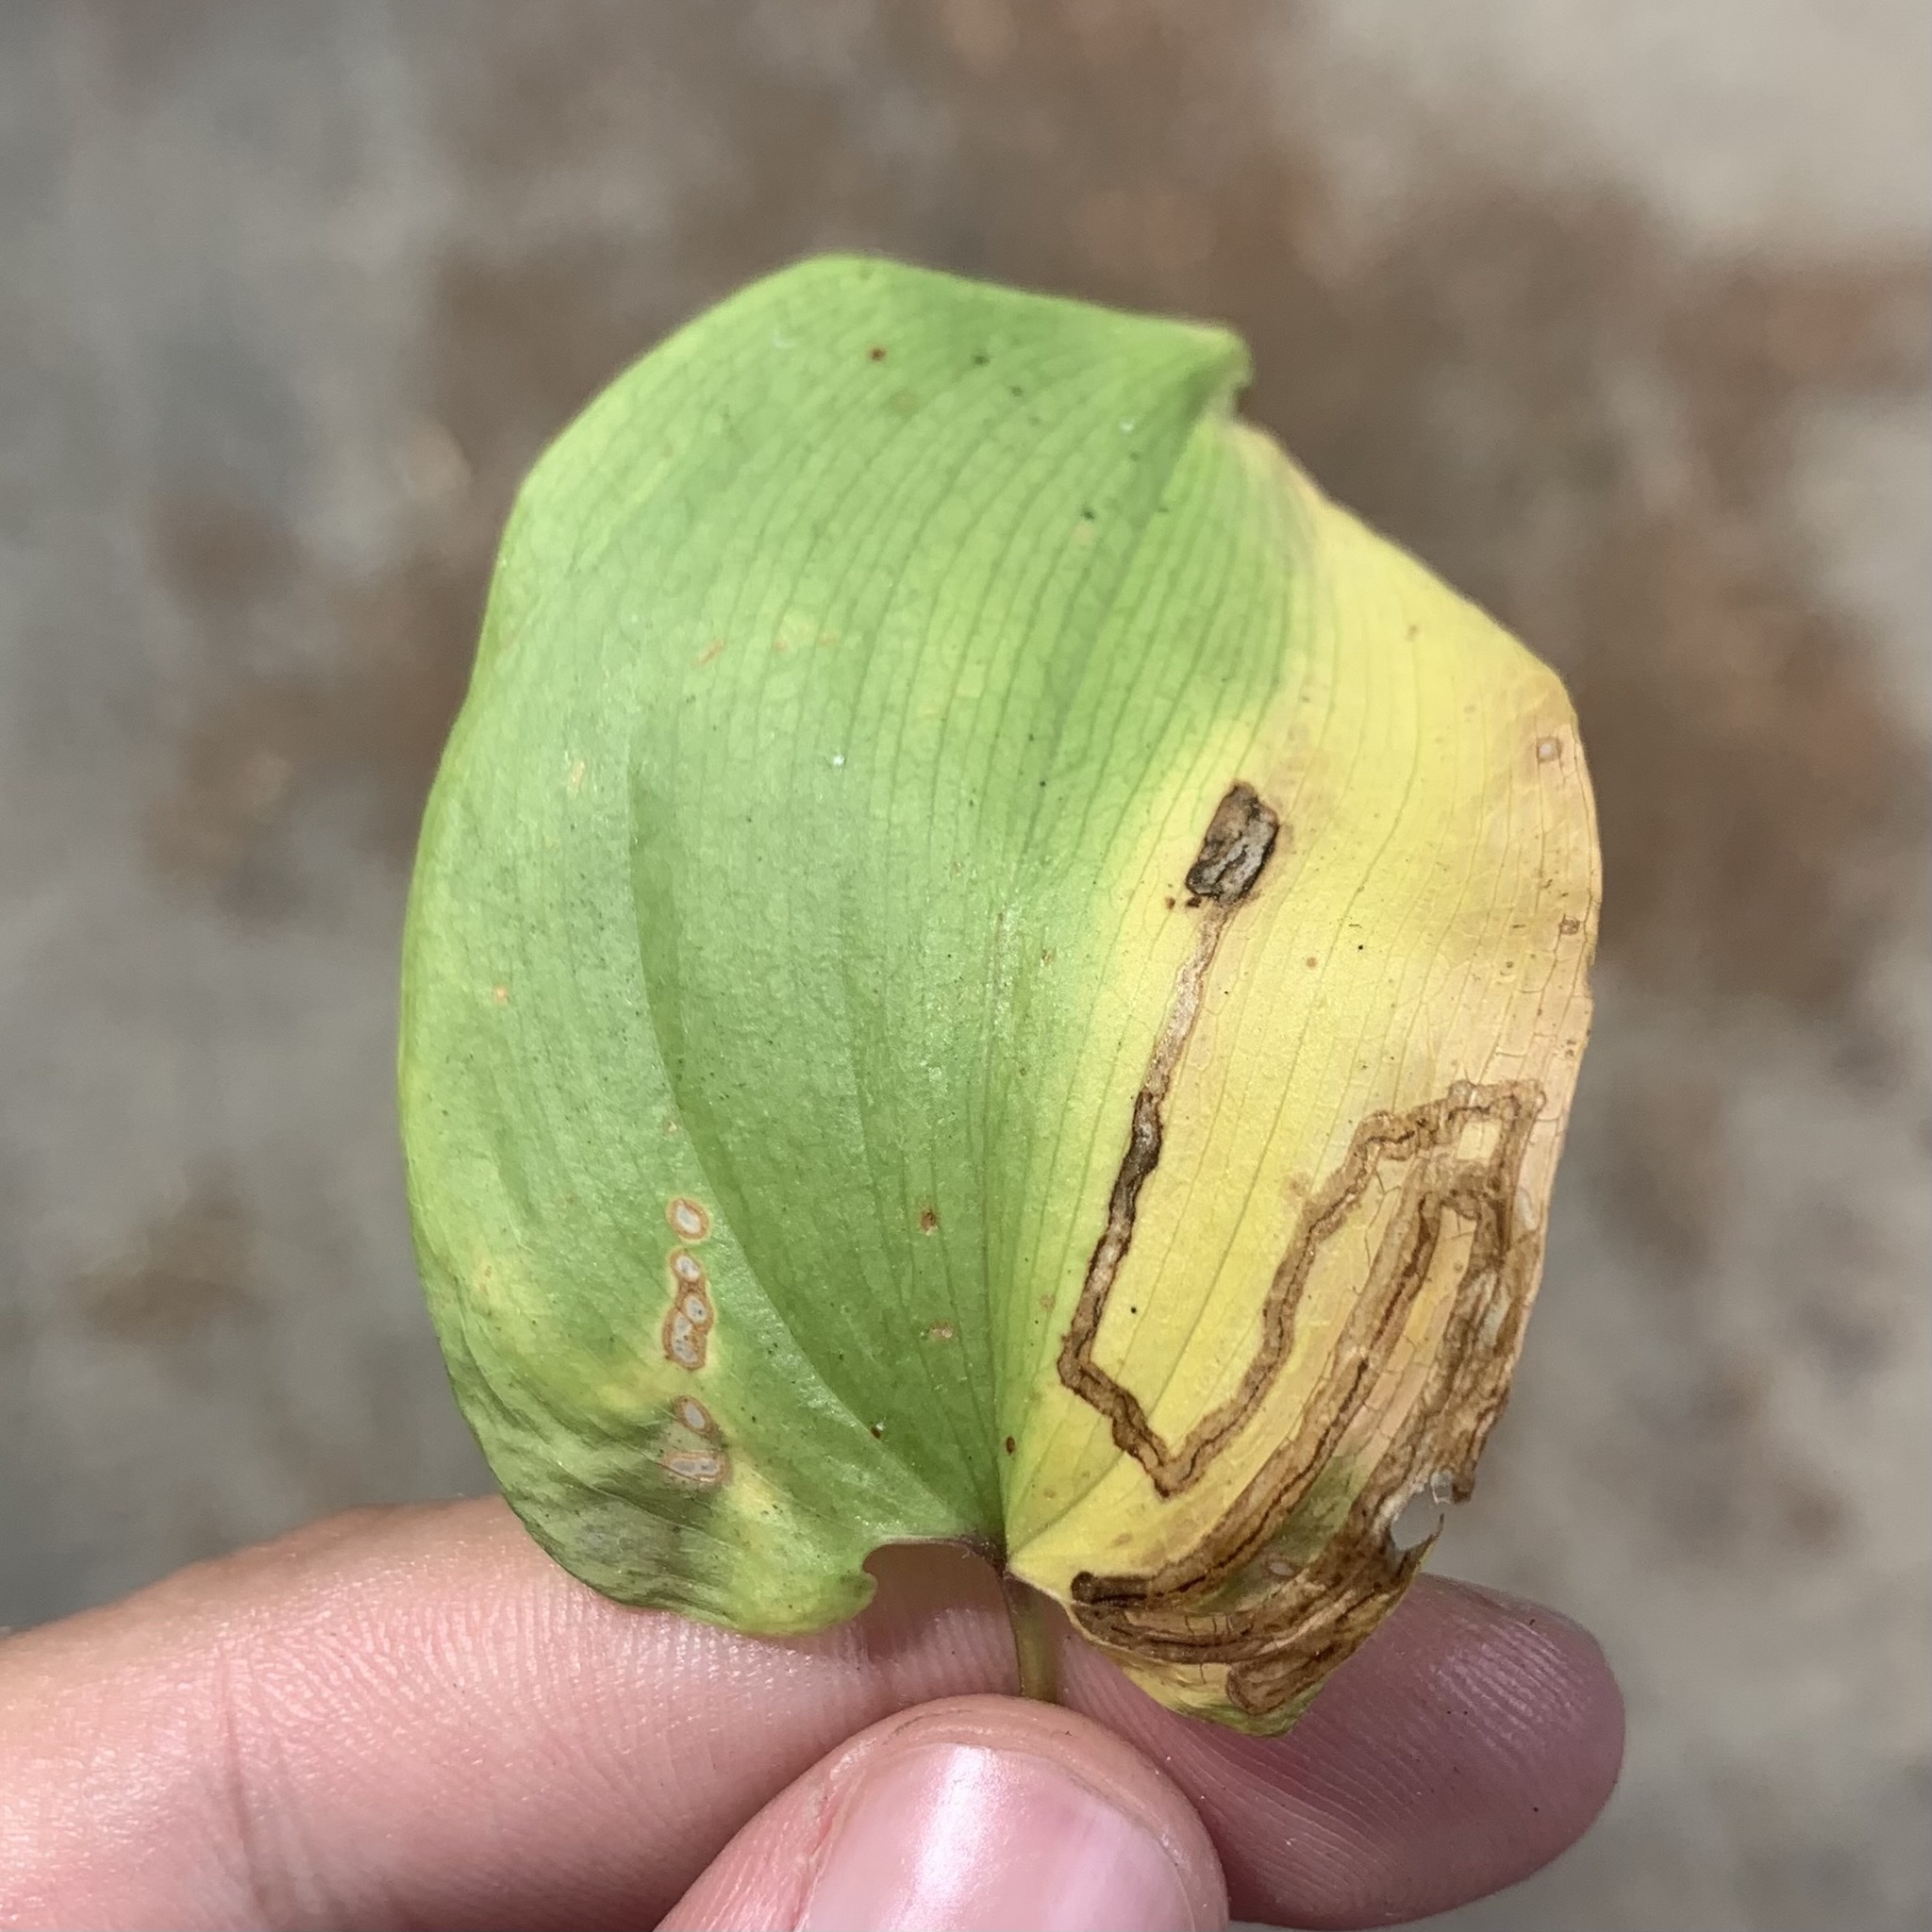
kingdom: Animalia
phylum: Arthropoda
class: Insecta
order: Diptera
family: Agromyzidae
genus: Liriomyza
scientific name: Liriomyza smilacinae
